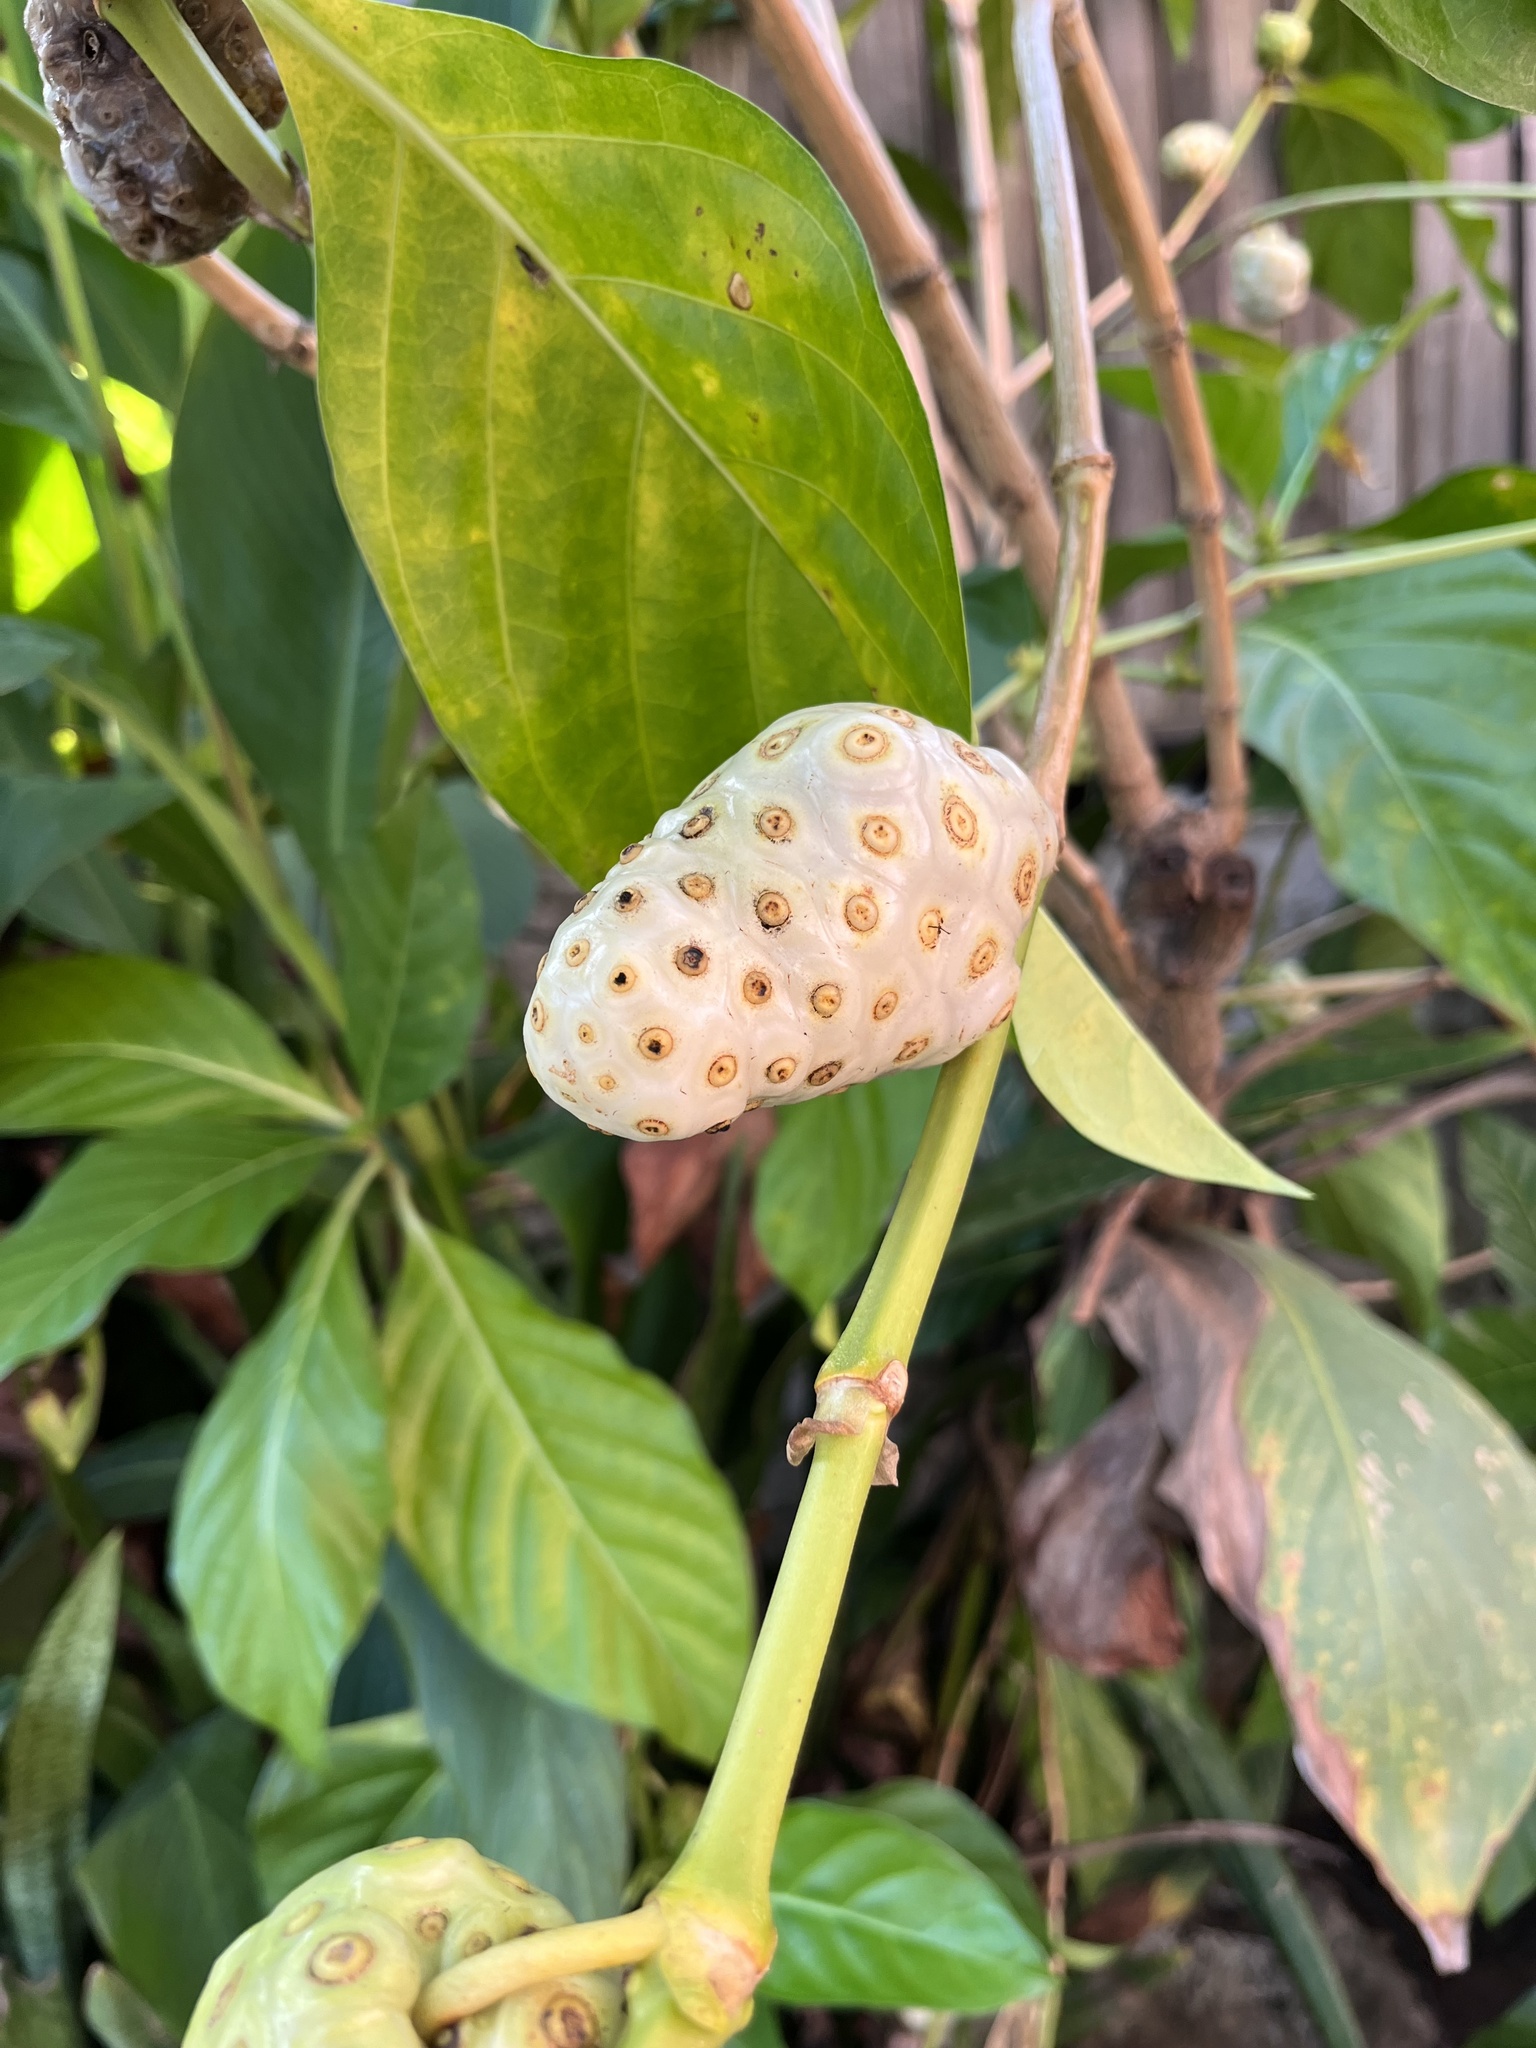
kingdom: Plantae
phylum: Tracheophyta
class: Magnoliopsida
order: Gentianales
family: Rubiaceae
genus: Morinda
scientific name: Morinda citrifolia
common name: Indian-mulberry
